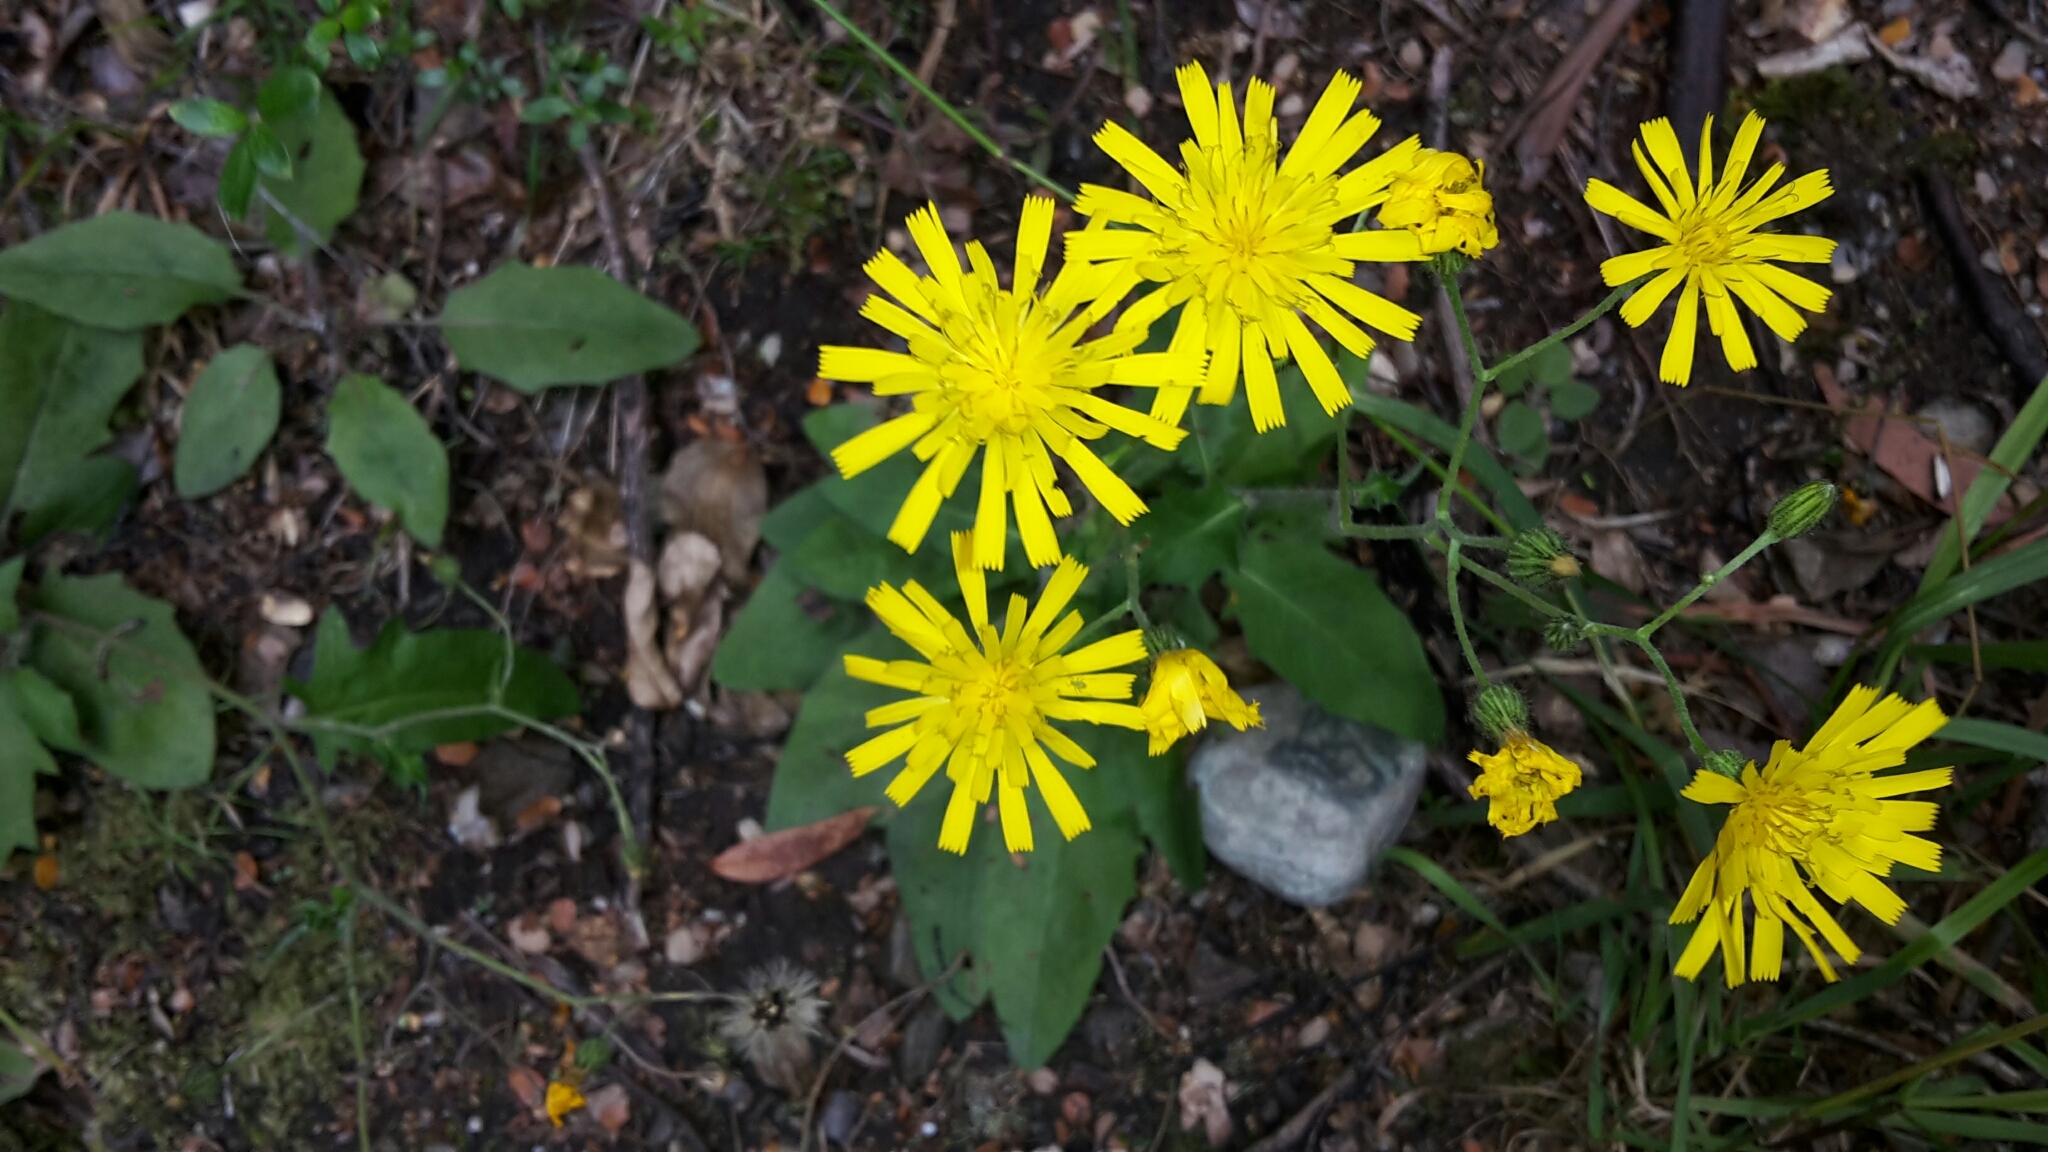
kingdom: Plantae
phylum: Tracheophyta
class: Magnoliopsida
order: Asterales
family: Asteraceae
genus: Hieracium
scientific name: Hieracium lepidulum
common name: Irregular-toothed hawkweed
